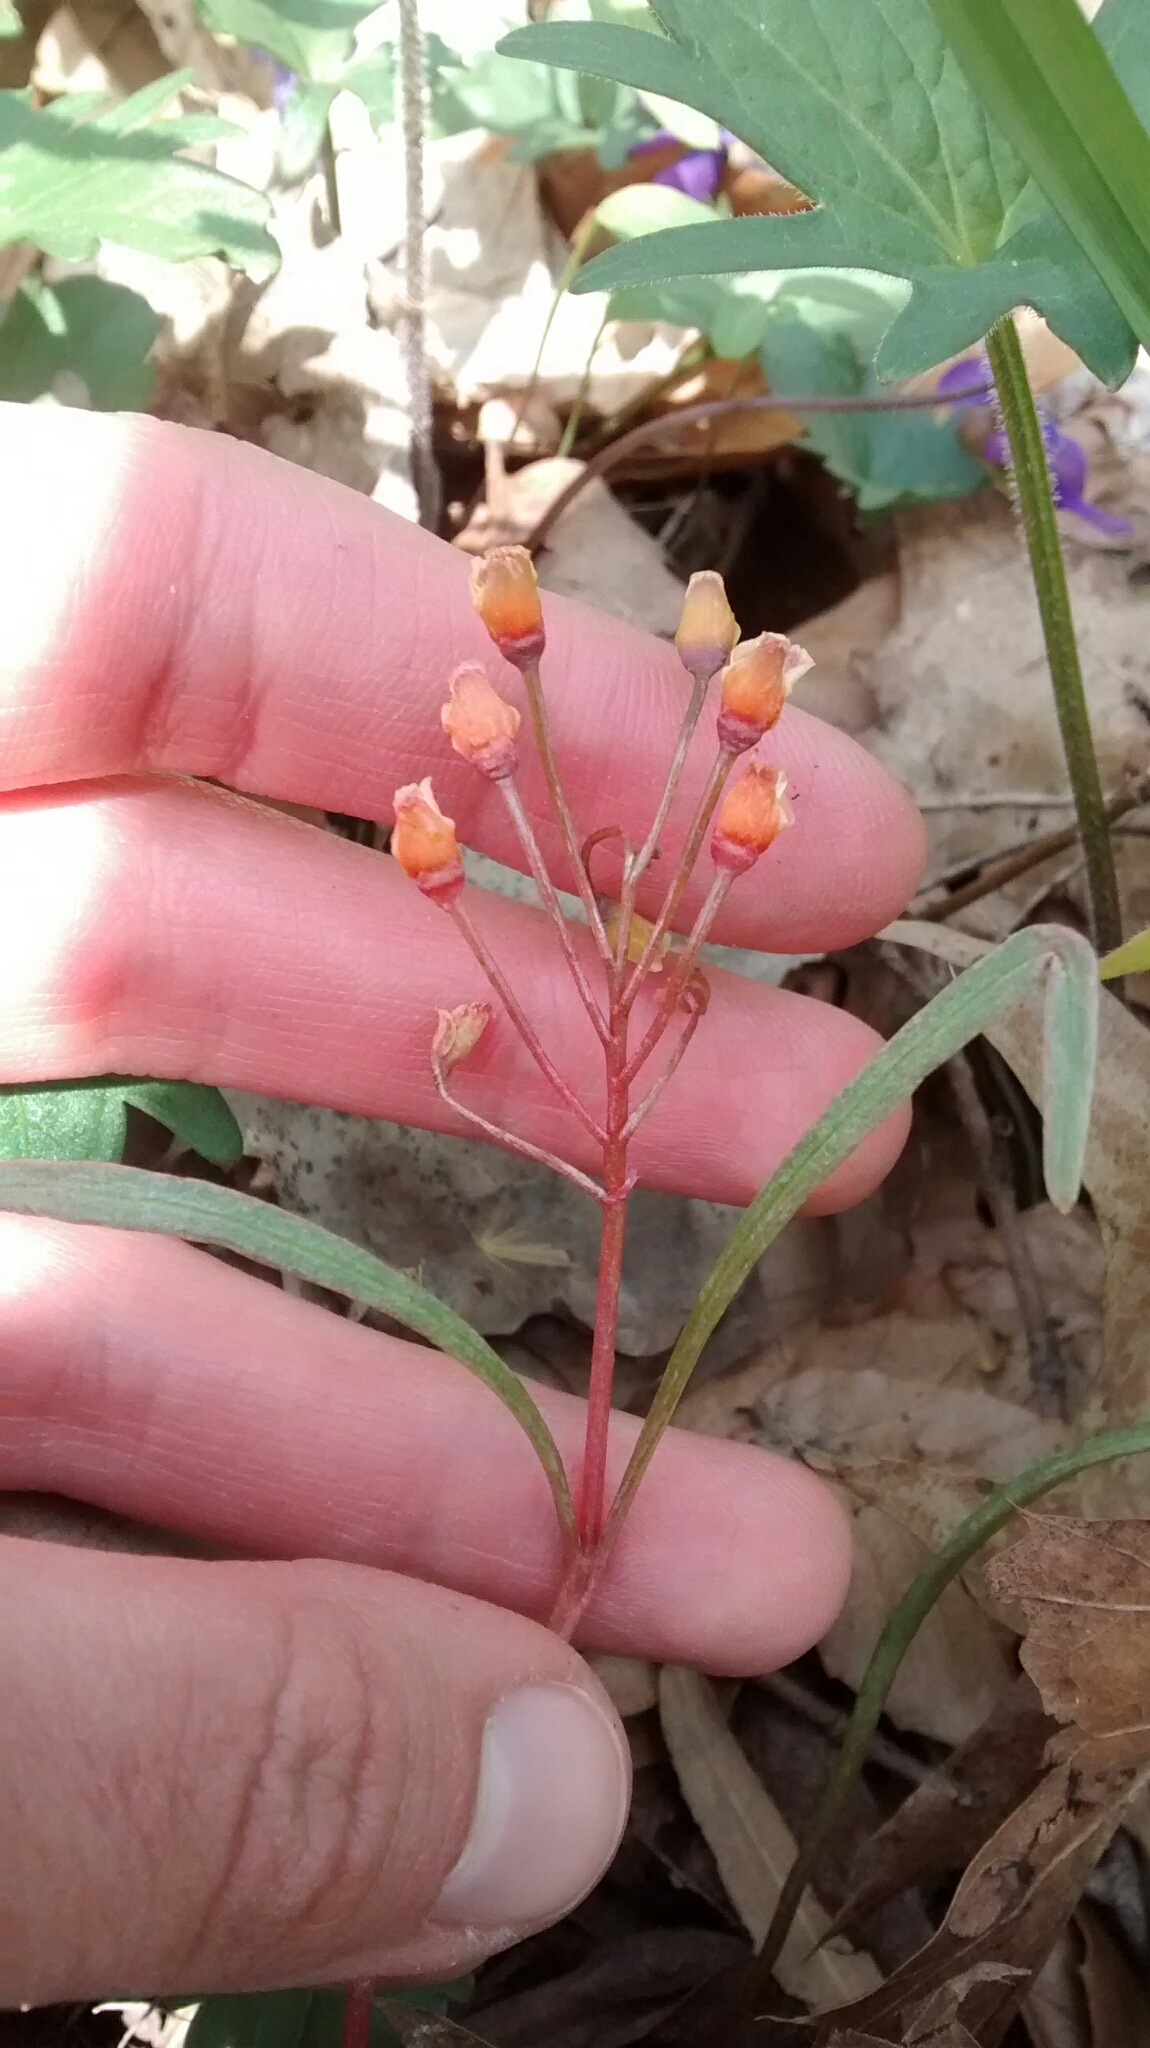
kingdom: Plantae
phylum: Tracheophyta
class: Magnoliopsida
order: Caryophyllales
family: Montiaceae
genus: Claytonia
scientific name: Claytonia virginica
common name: Virginia springbeauty
